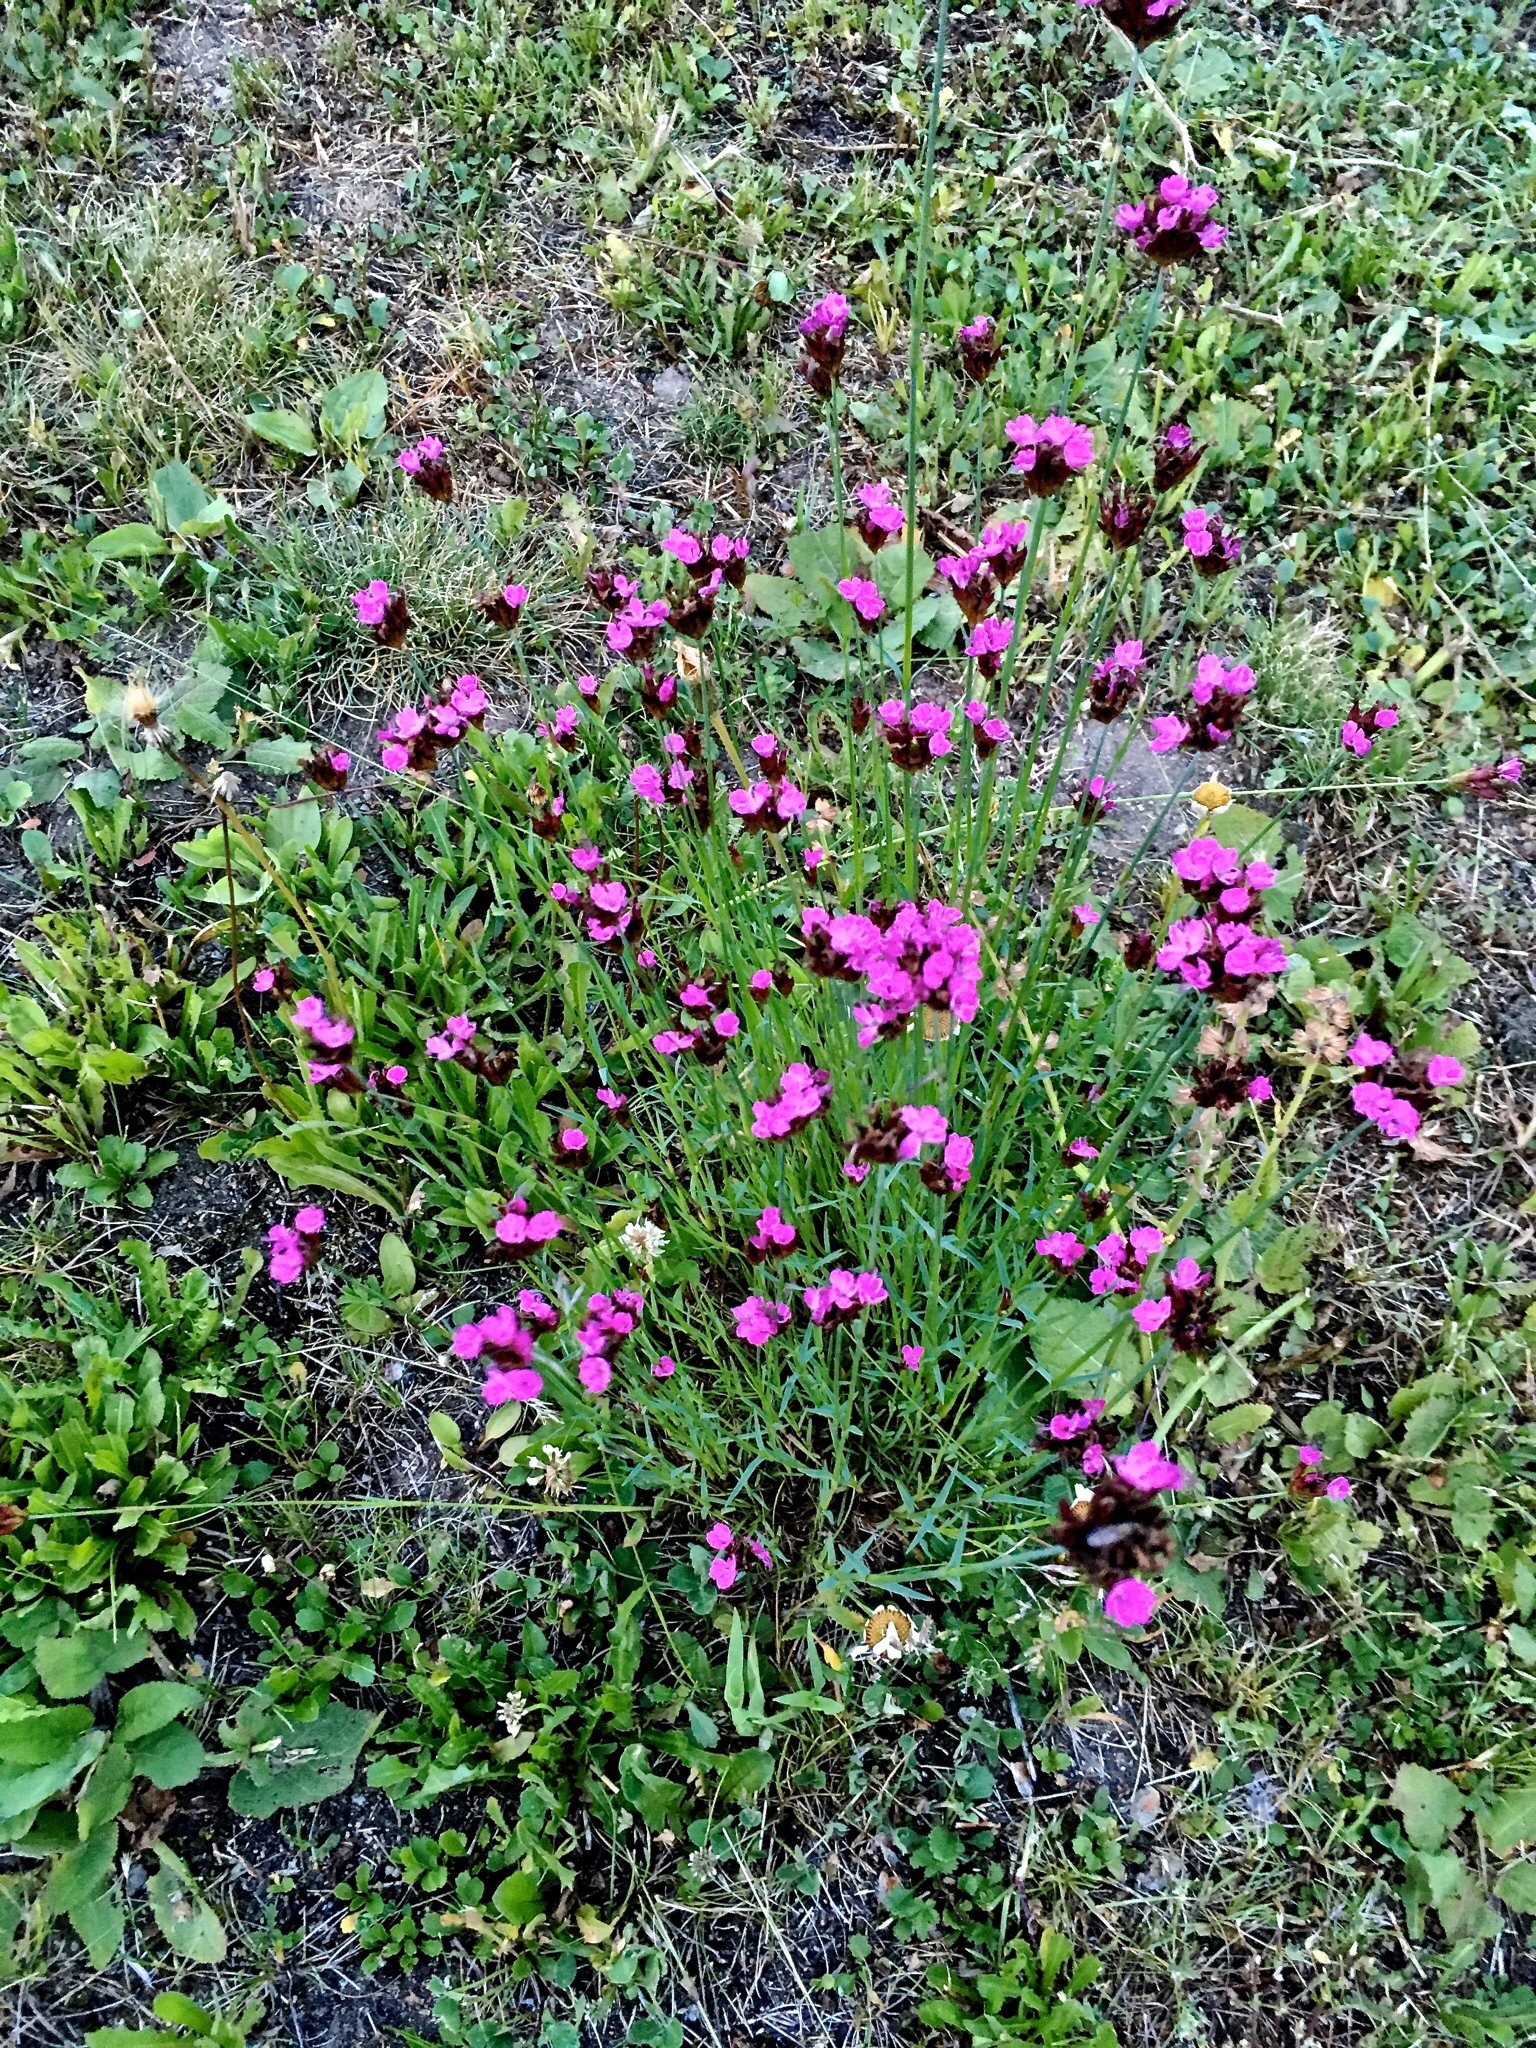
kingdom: Plantae
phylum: Tracheophyta
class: Magnoliopsida
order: Caryophyllales
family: Caryophyllaceae
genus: Dianthus
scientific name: Dianthus carthusianorum
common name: Carthusian pink
